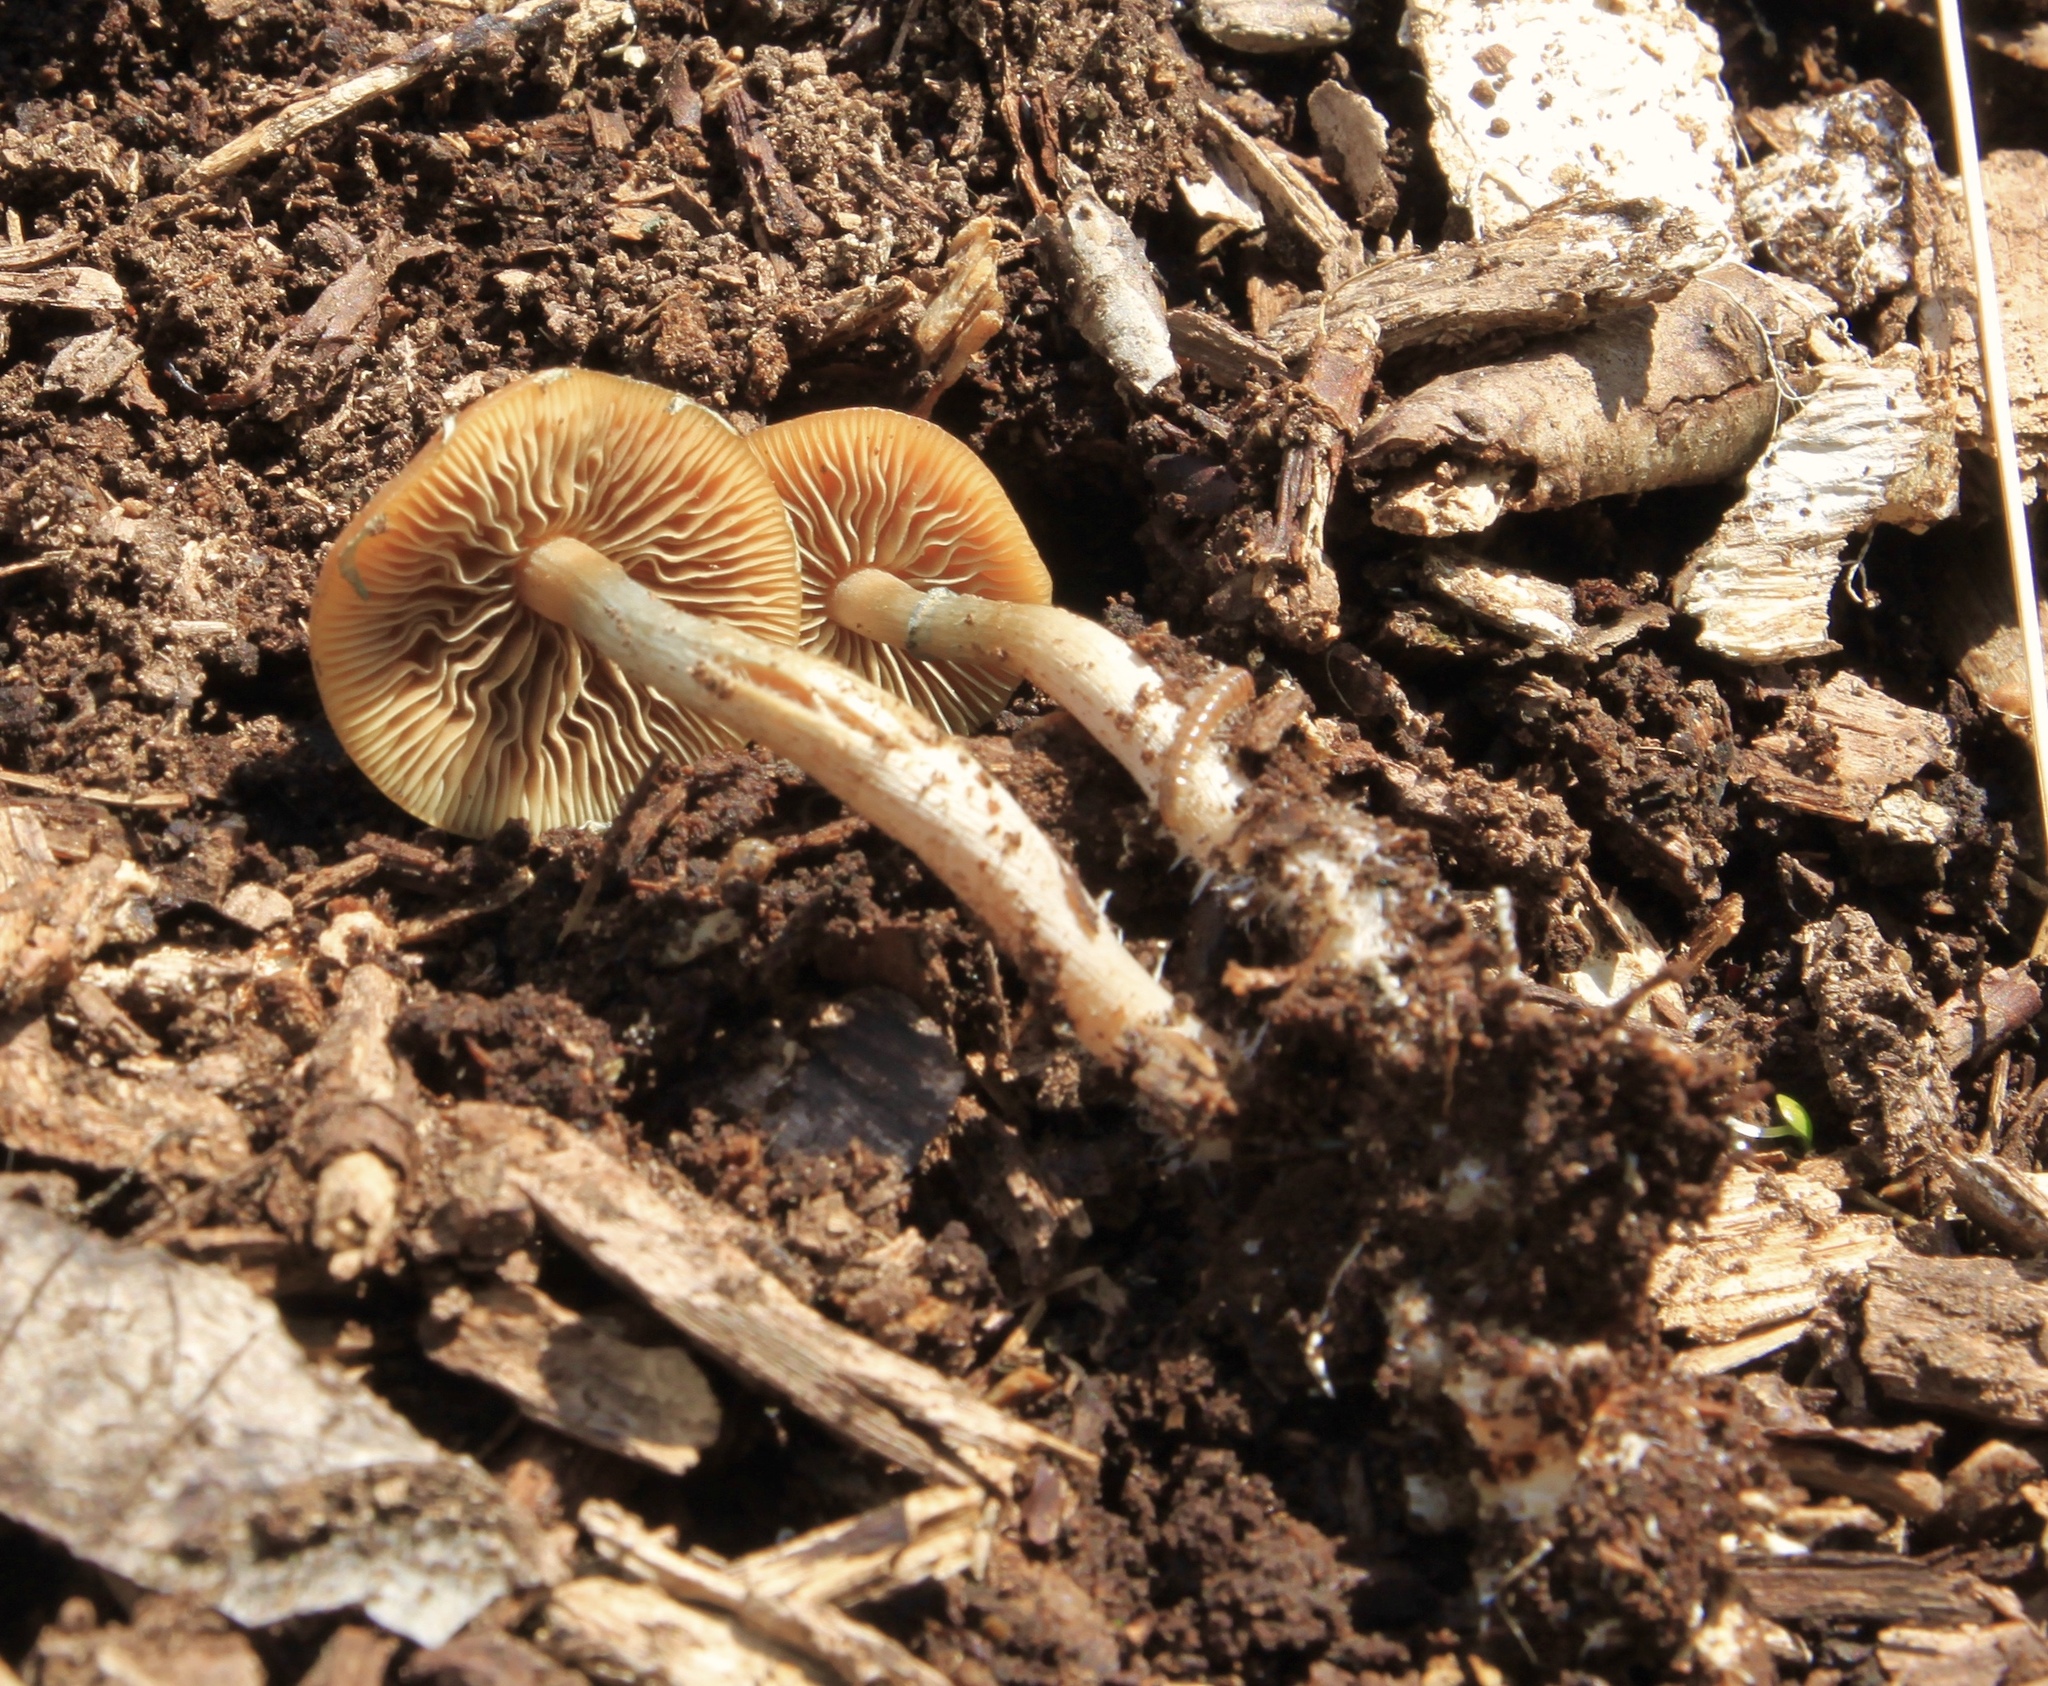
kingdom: Fungi
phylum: Basidiomycota
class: Agaricomycetes
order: Agaricales
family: Hymenogastraceae
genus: Psilocybe
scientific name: Psilocybe ovoideocystidiata
